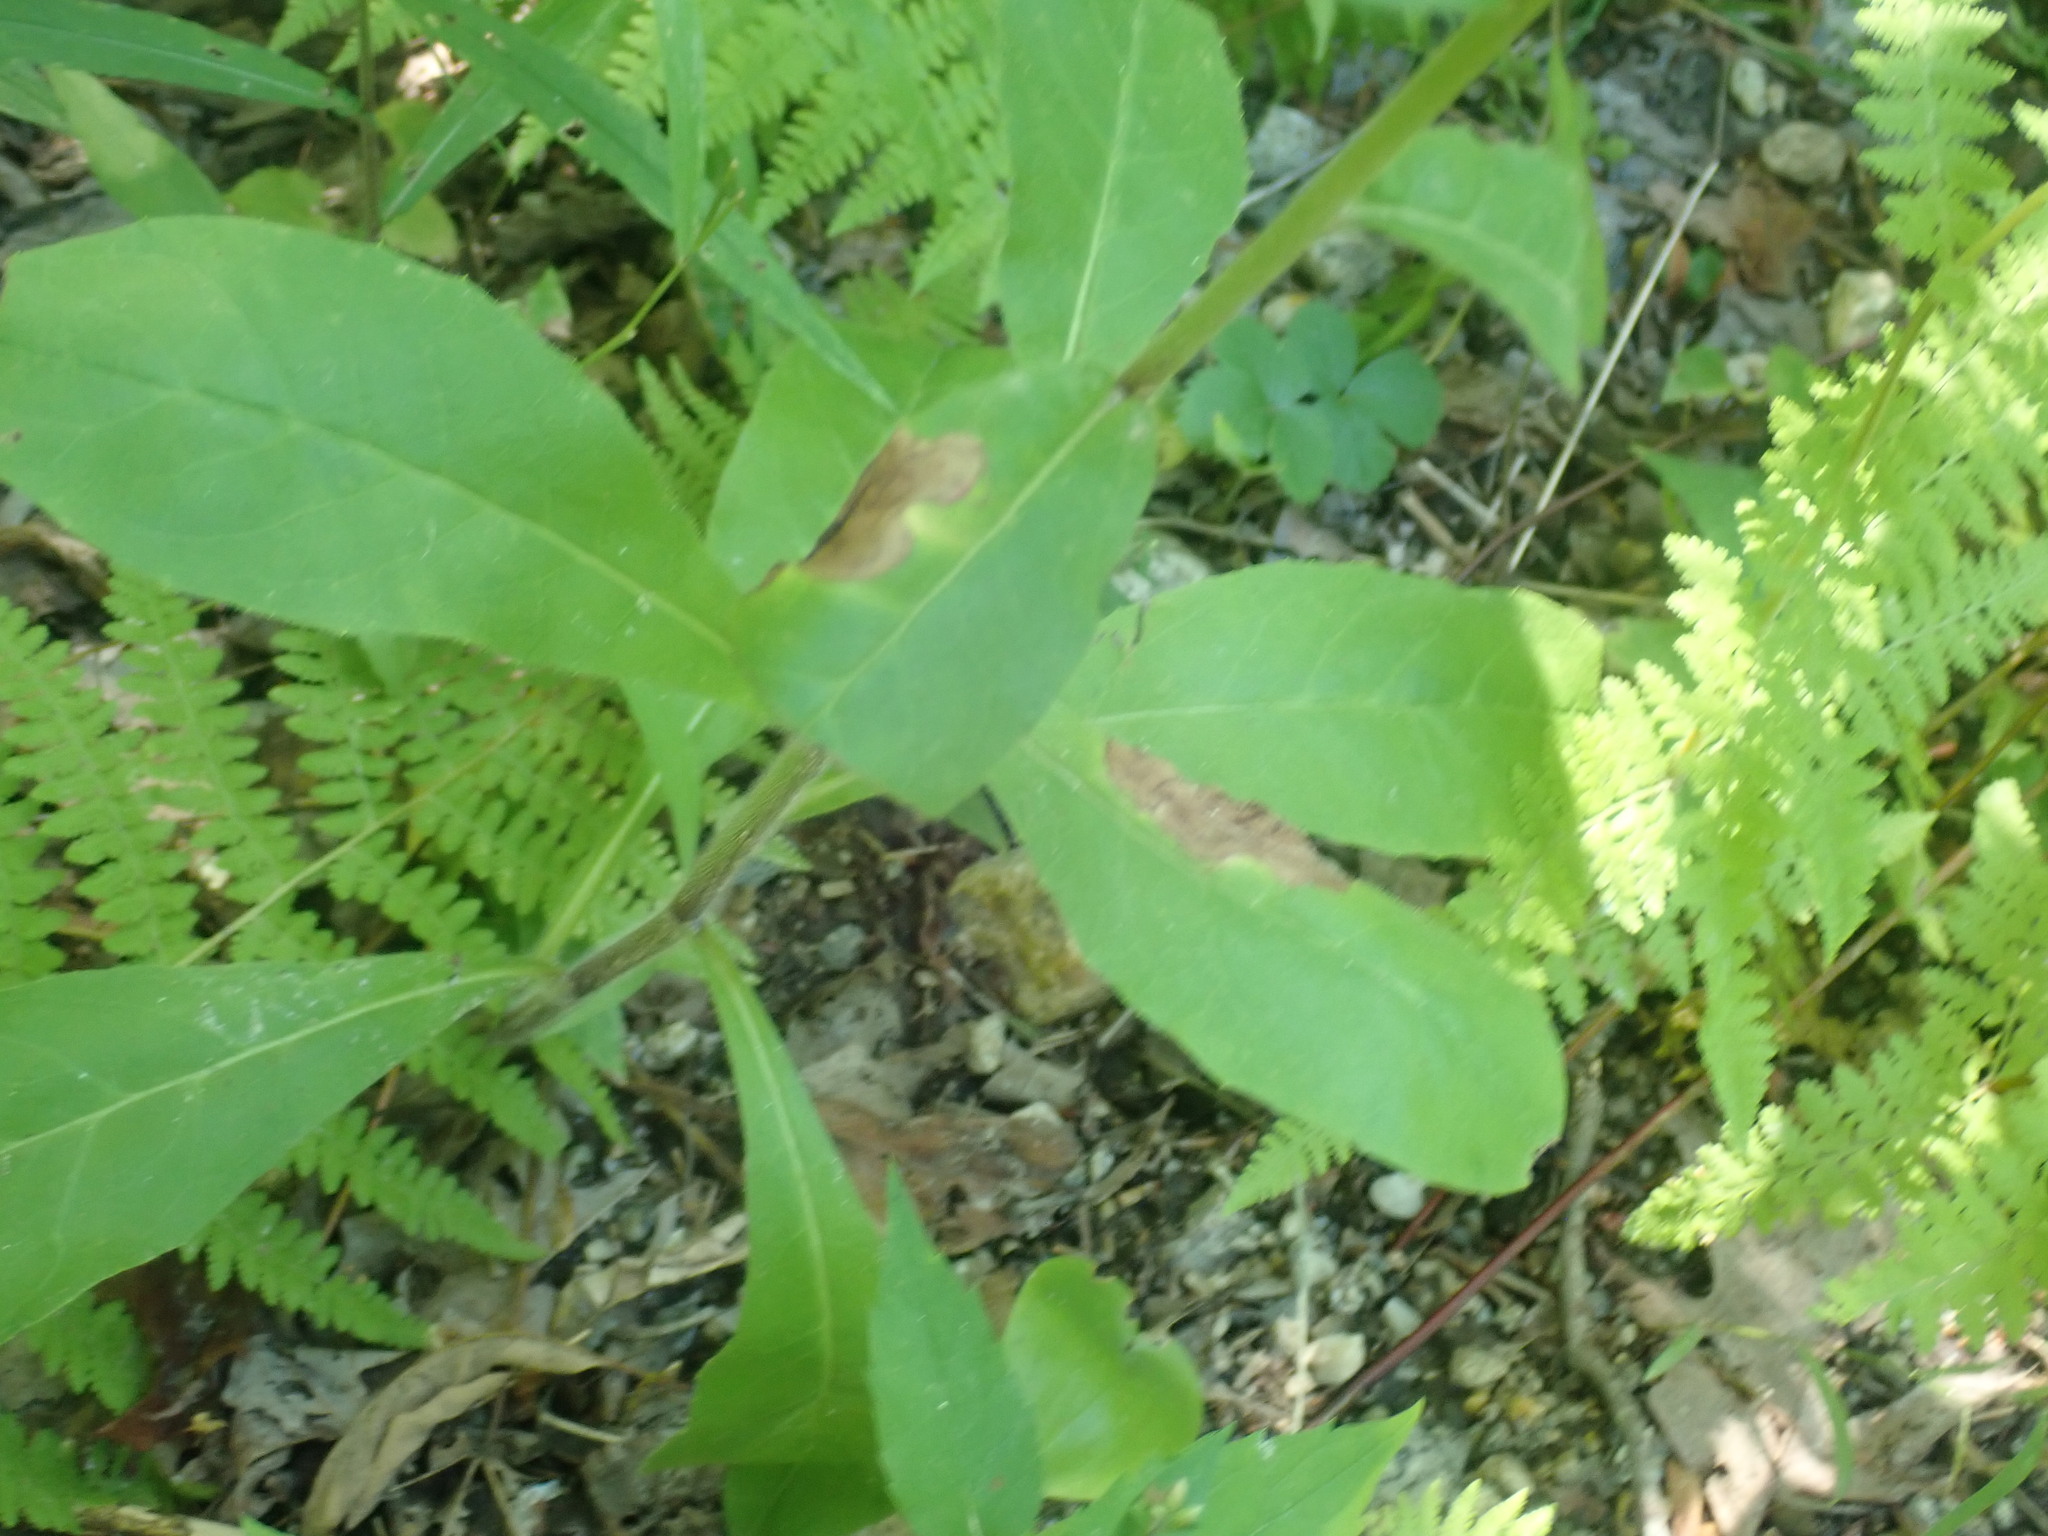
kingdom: Plantae
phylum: Tracheophyta
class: Magnoliopsida
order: Asterales
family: Asteraceae
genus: Hieracium
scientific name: Hieracium scabrum
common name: Rough hawkweed
